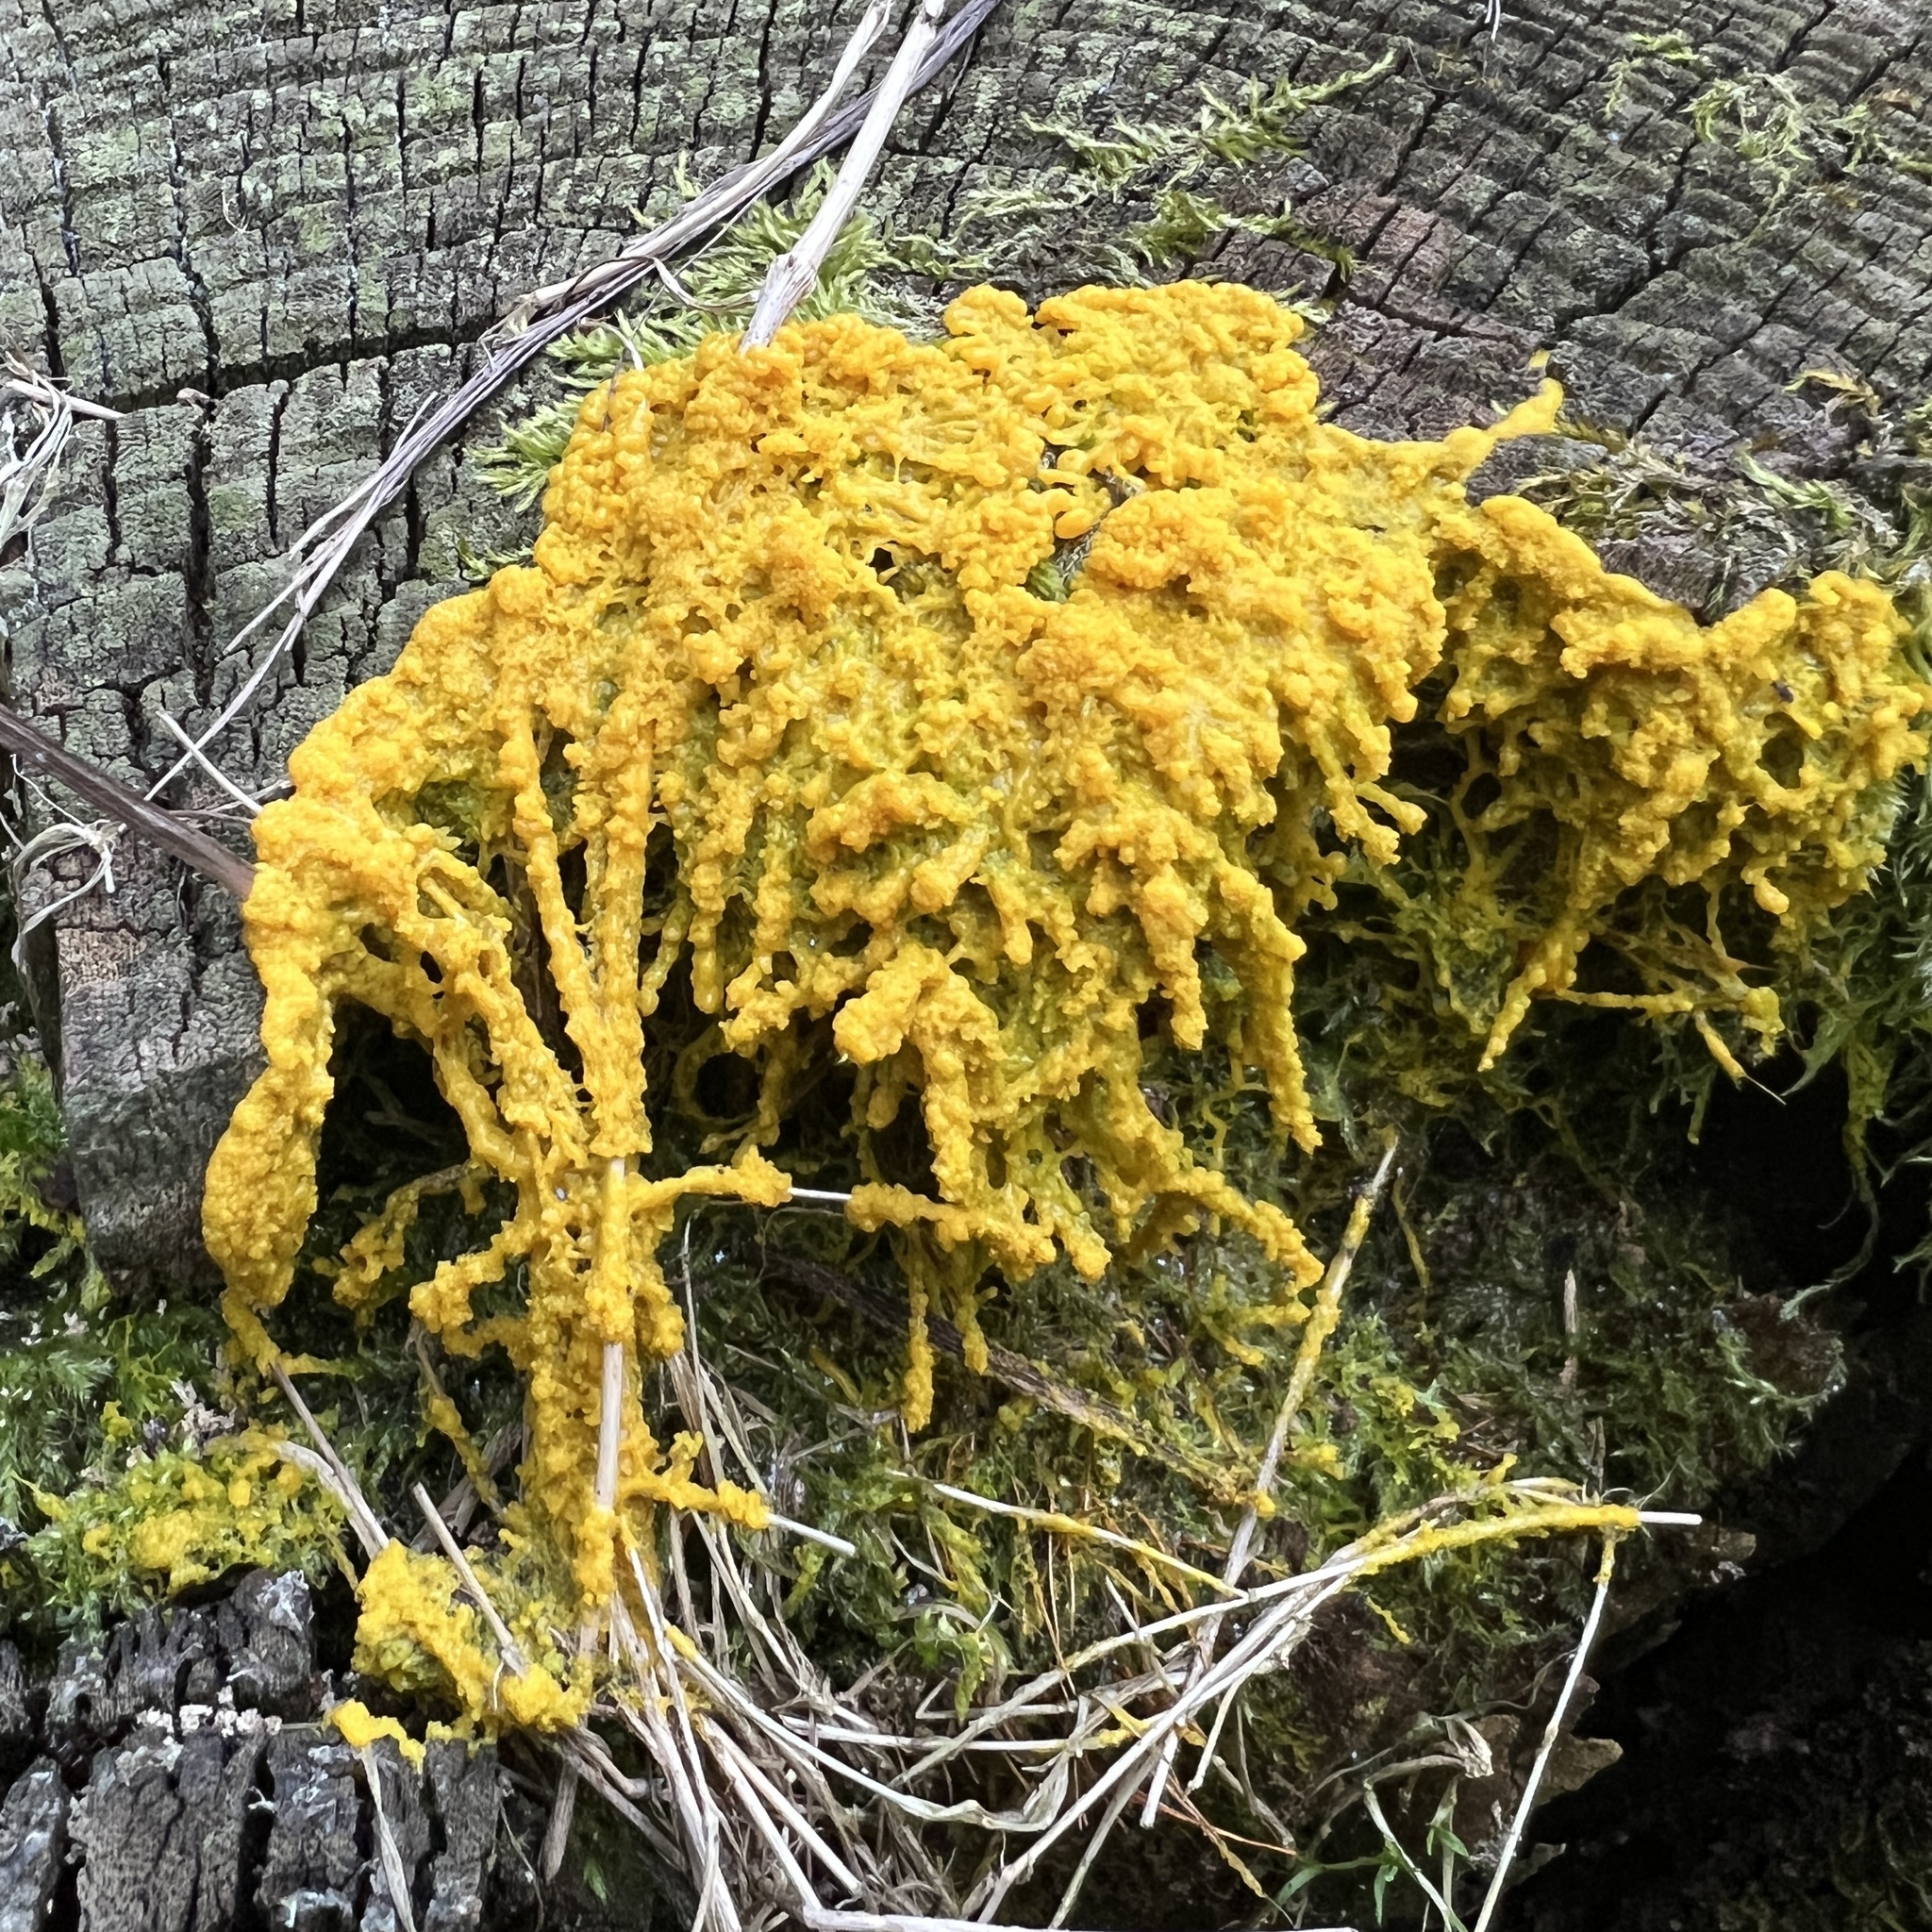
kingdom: Protozoa
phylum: Mycetozoa
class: Myxomycetes
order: Physarales
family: Physaraceae
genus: Fuligo
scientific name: Fuligo septica
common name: Dog vomit slime mold
